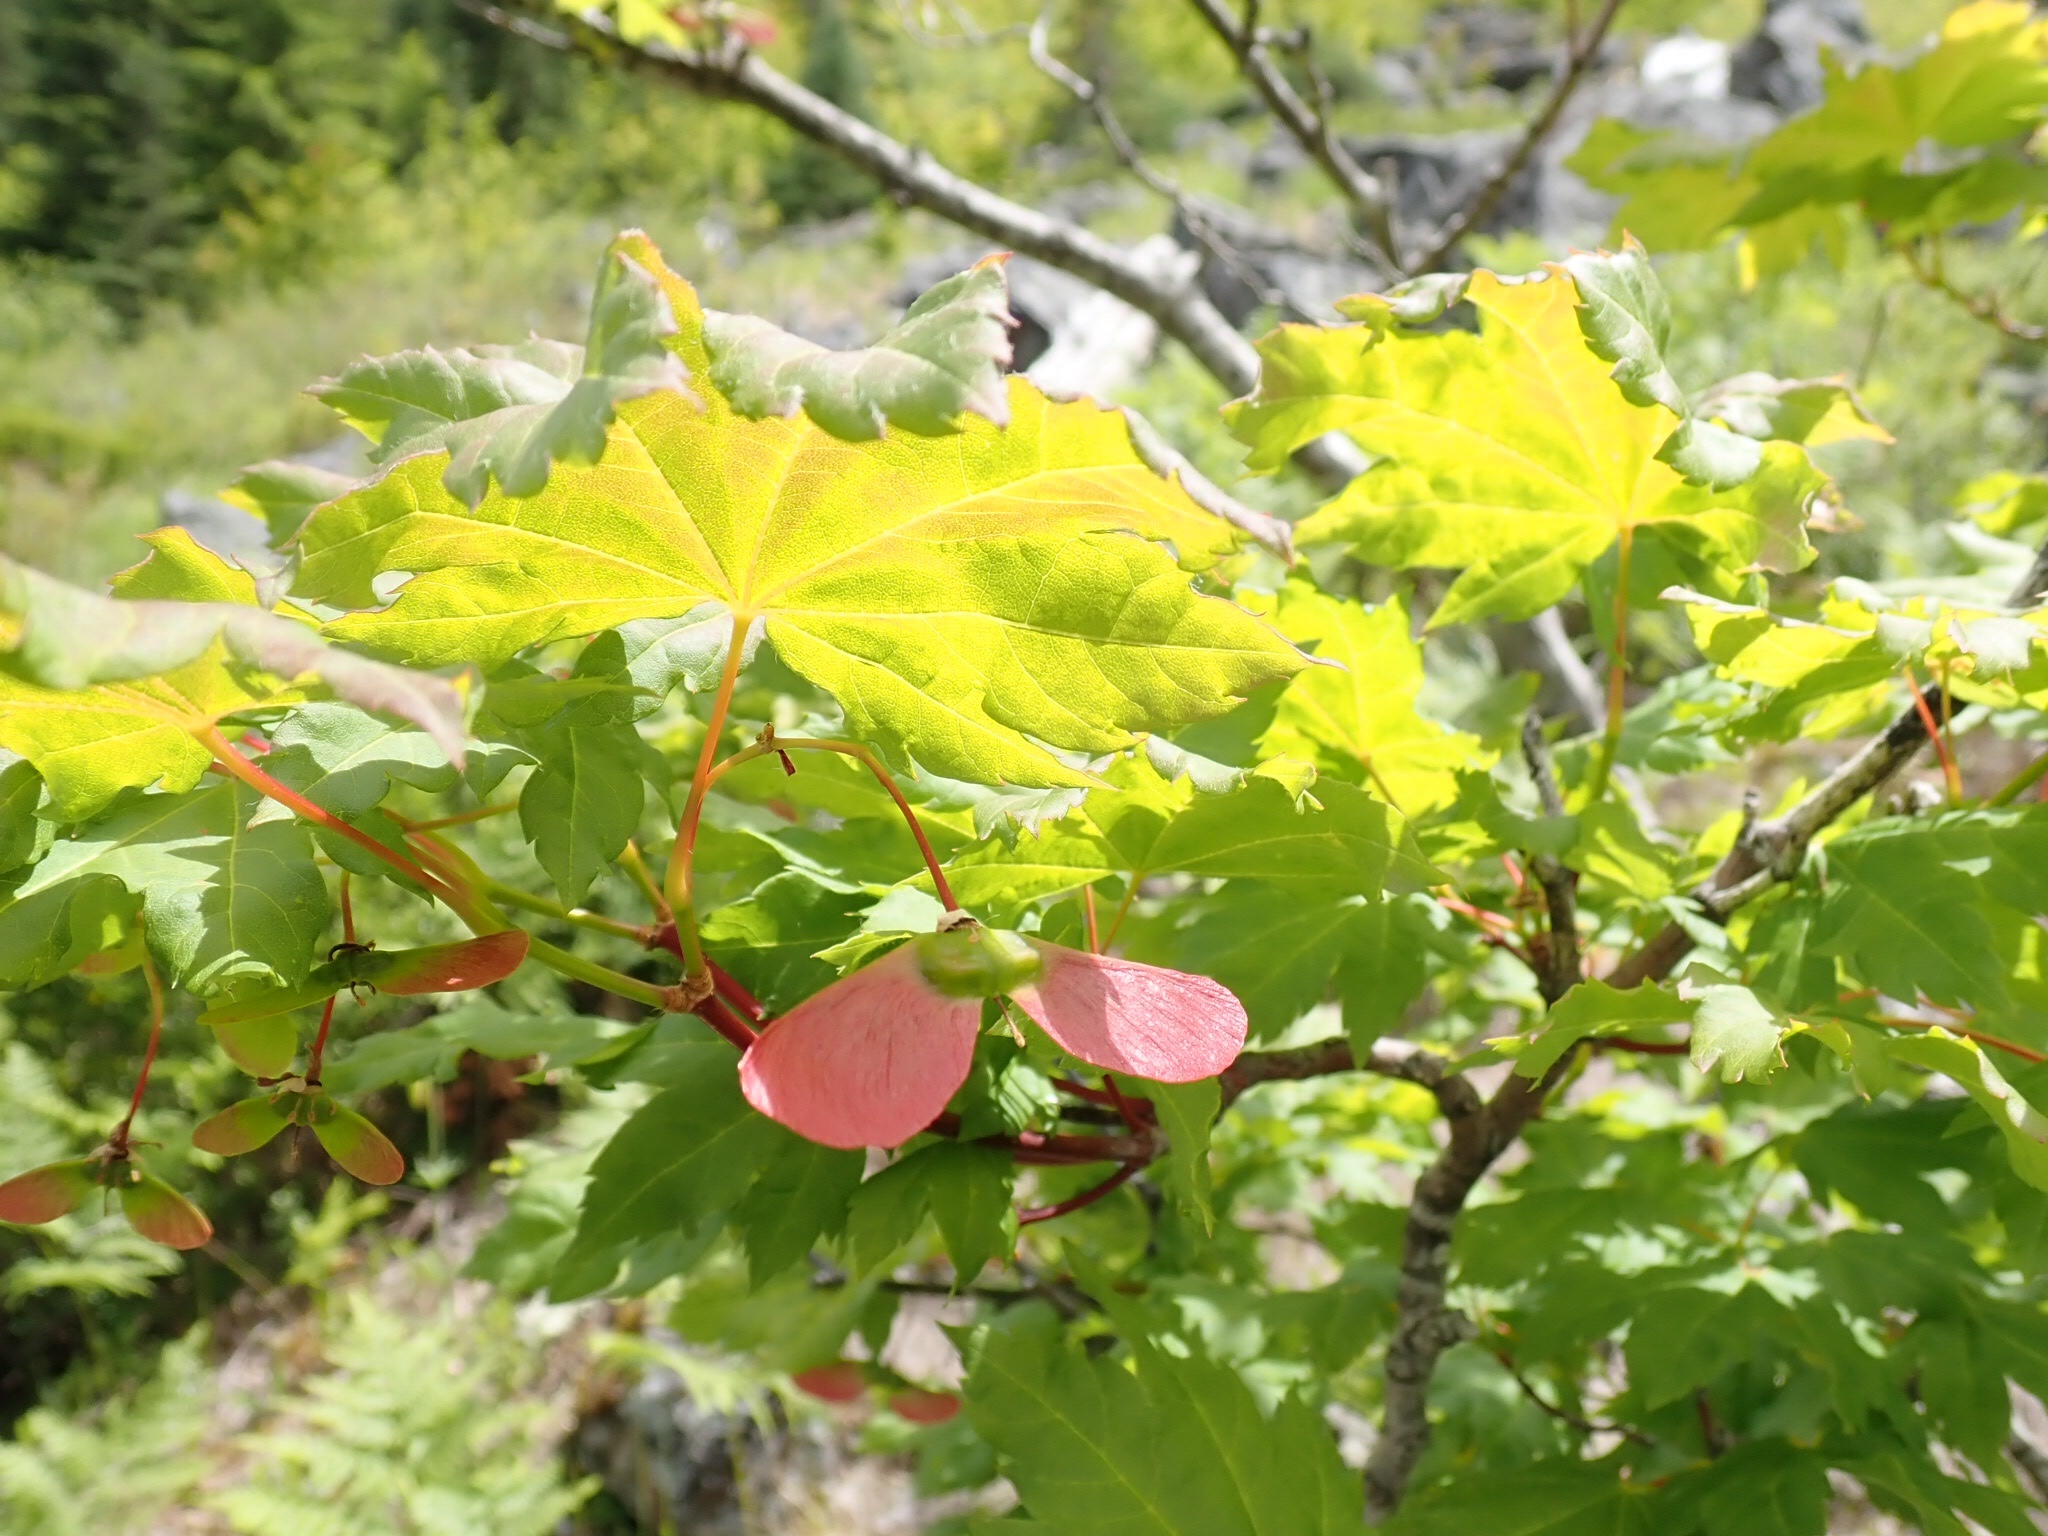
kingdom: Plantae
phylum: Tracheophyta
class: Magnoliopsida
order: Sapindales
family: Sapindaceae
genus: Acer
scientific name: Acer circinatum
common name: Vine maple
